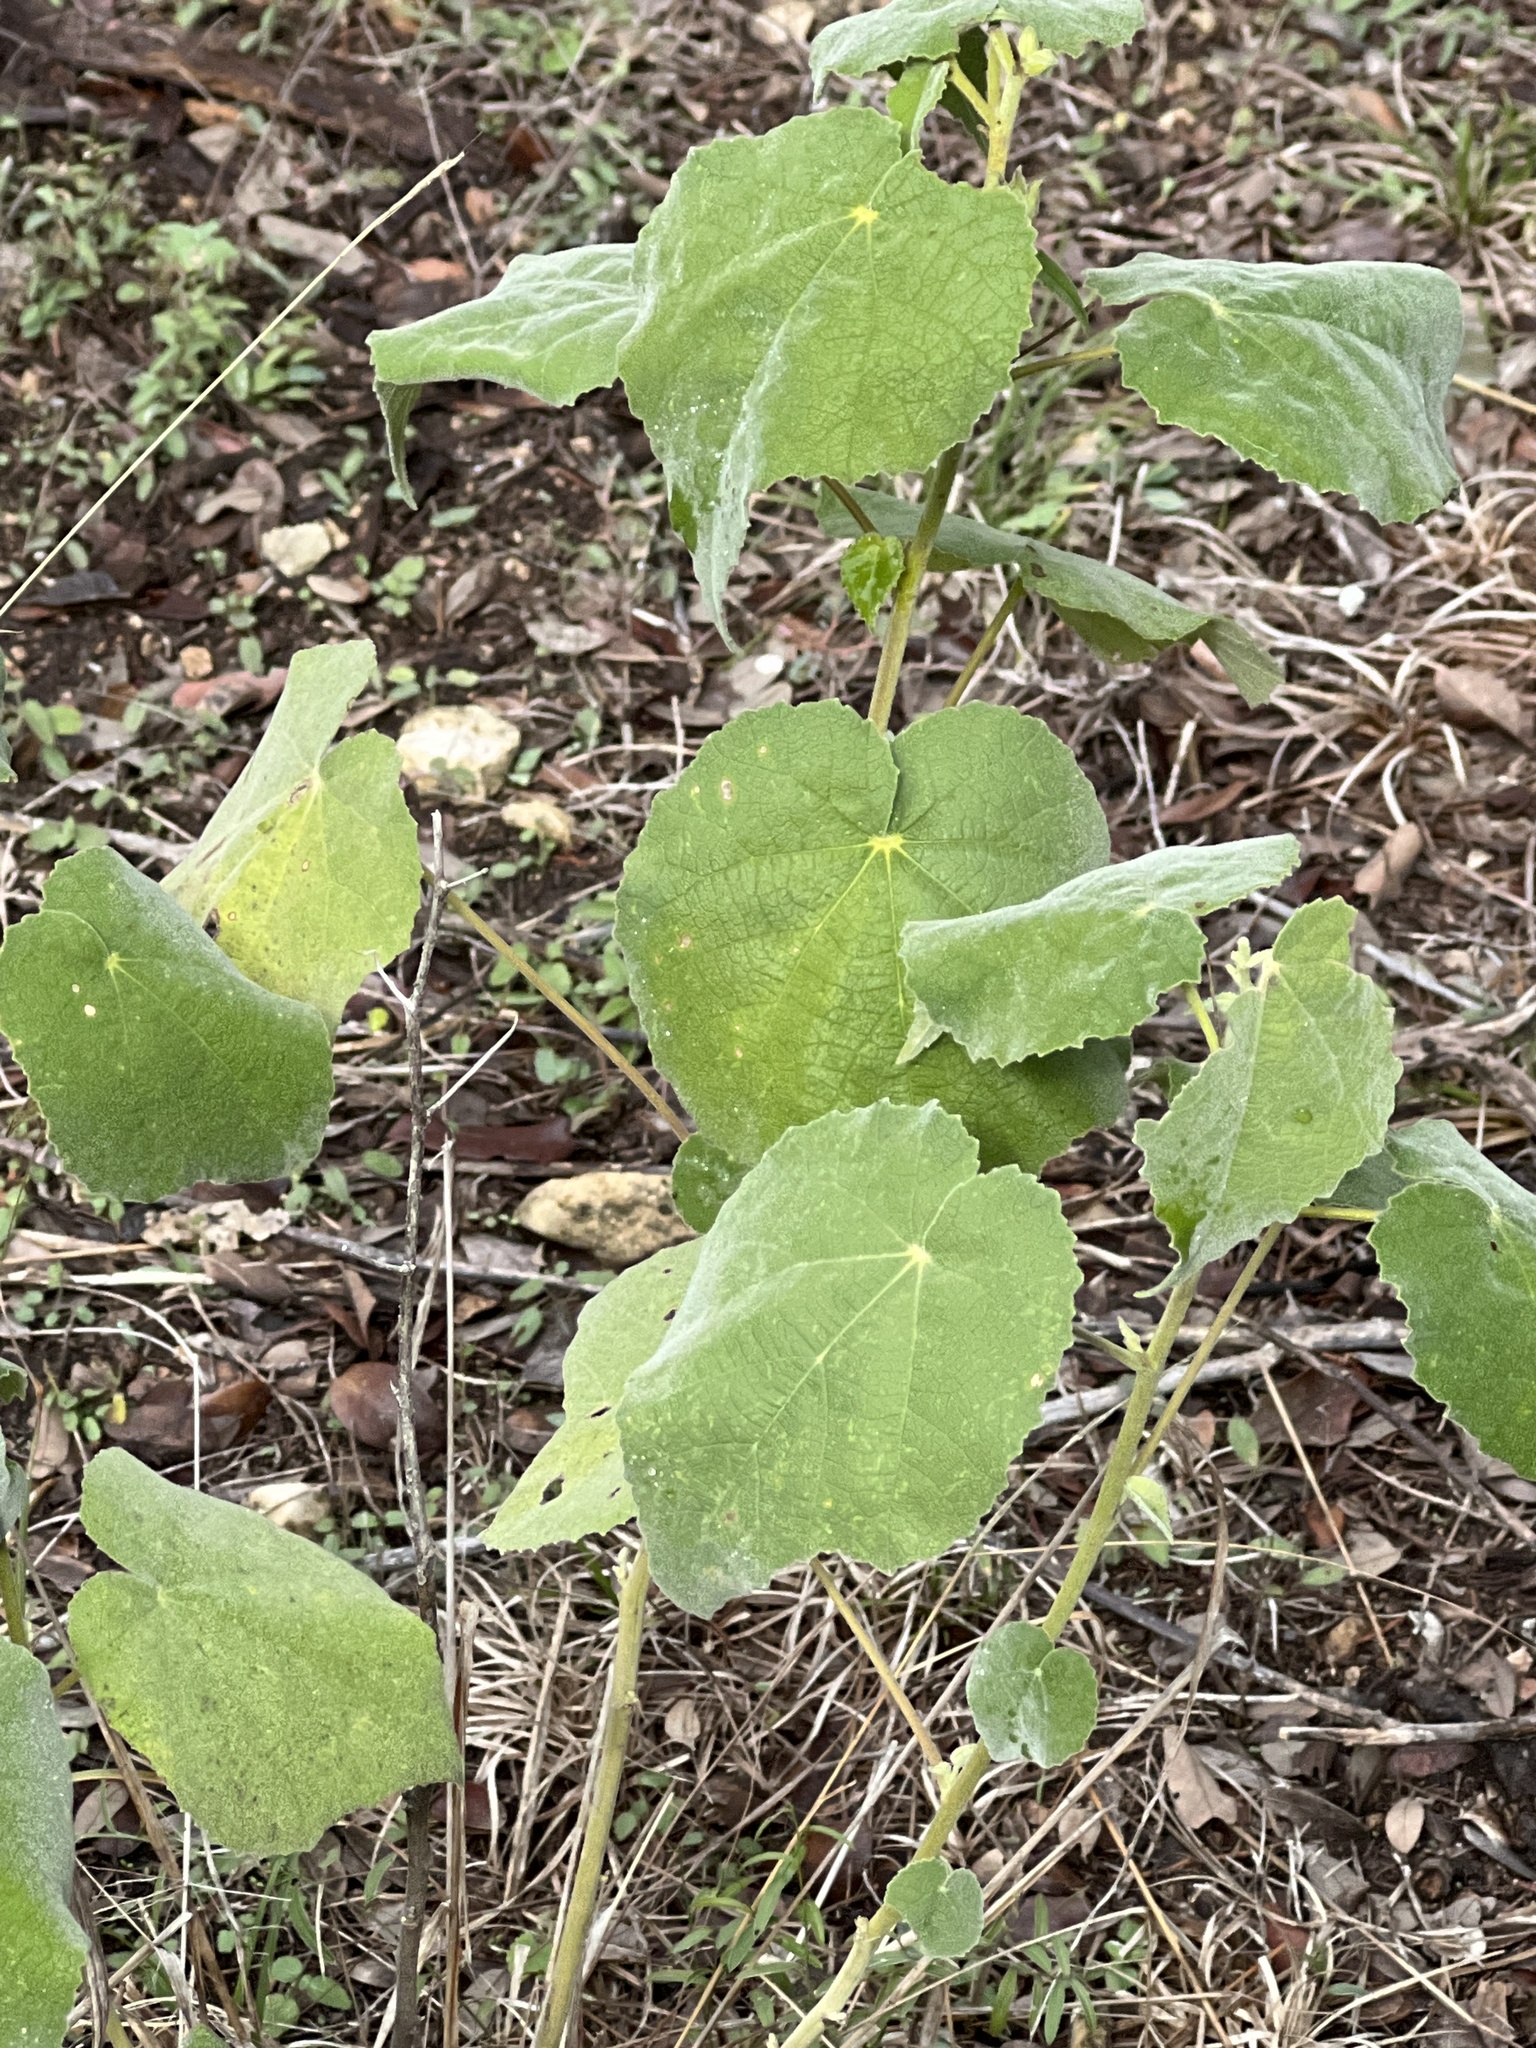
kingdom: Plantae
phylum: Tracheophyta
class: Magnoliopsida
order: Malvales
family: Malvaceae
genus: Allowissadula
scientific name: Allowissadula holosericea
